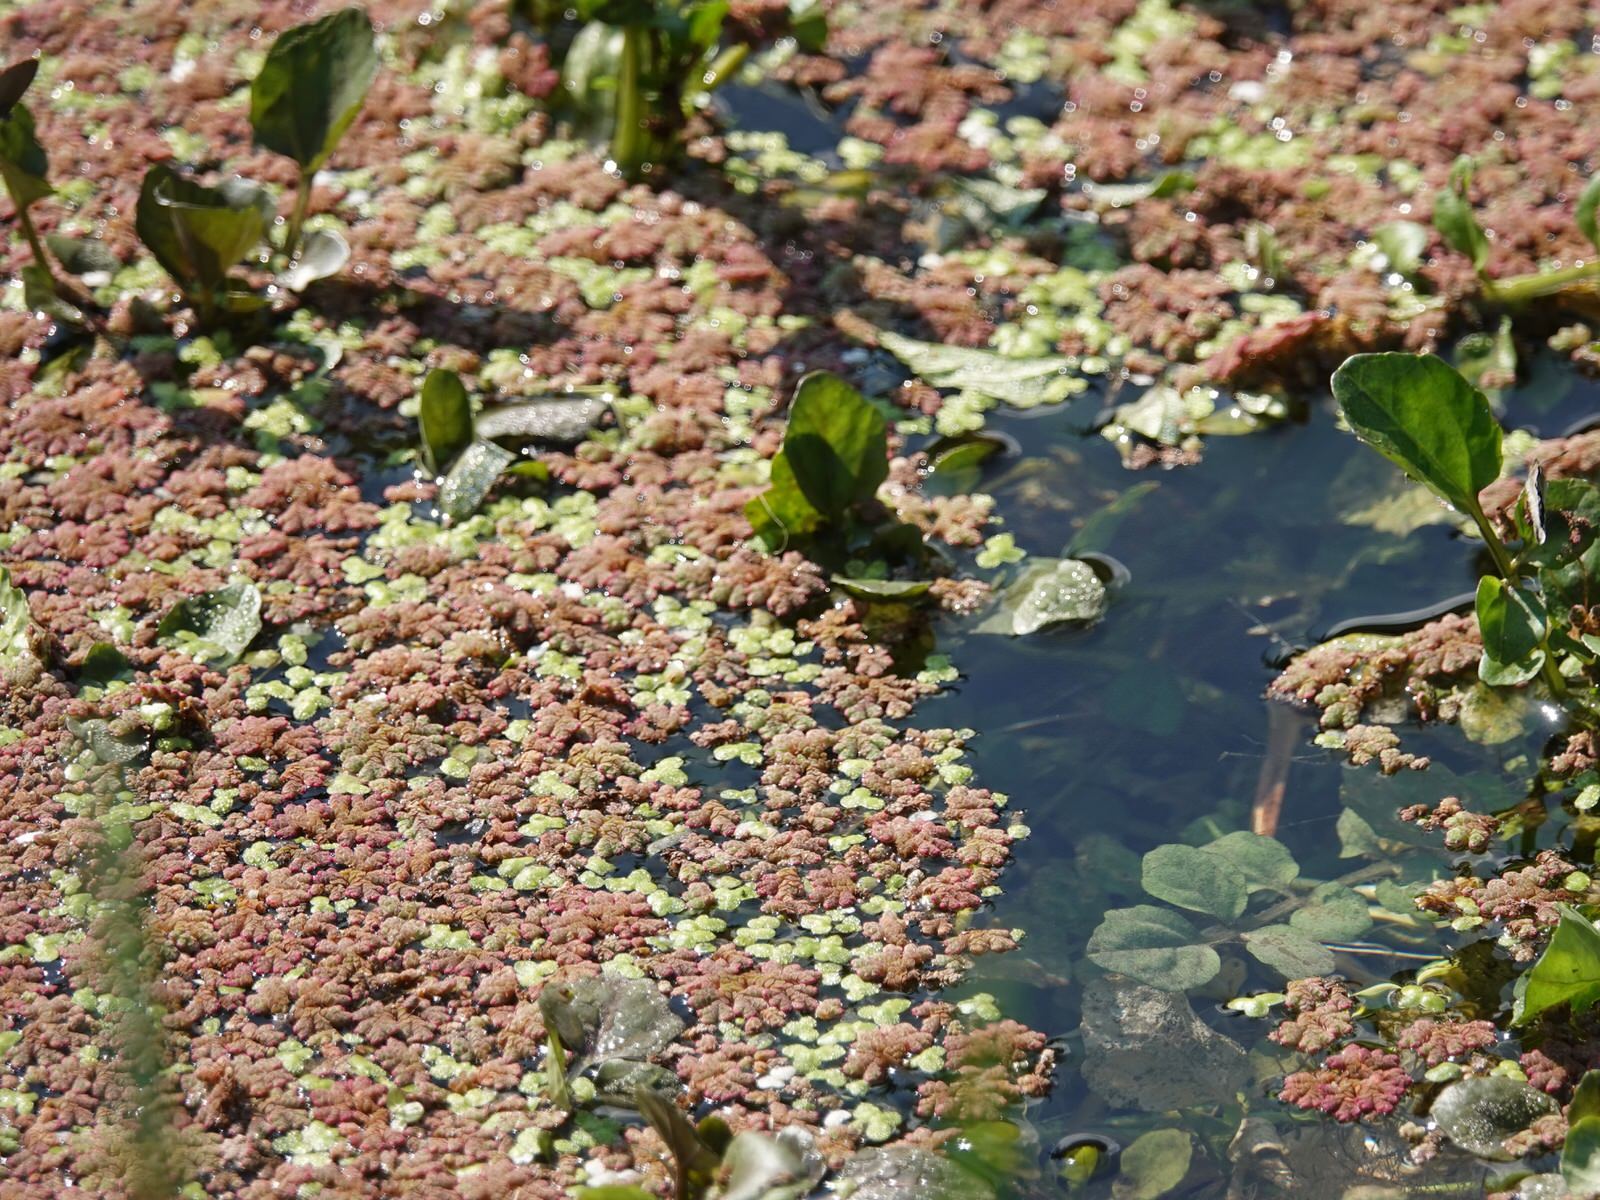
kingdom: Plantae
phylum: Tracheophyta
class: Polypodiopsida
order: Salviniales
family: Salviniaceae
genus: Azolla
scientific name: Azolla rubra
